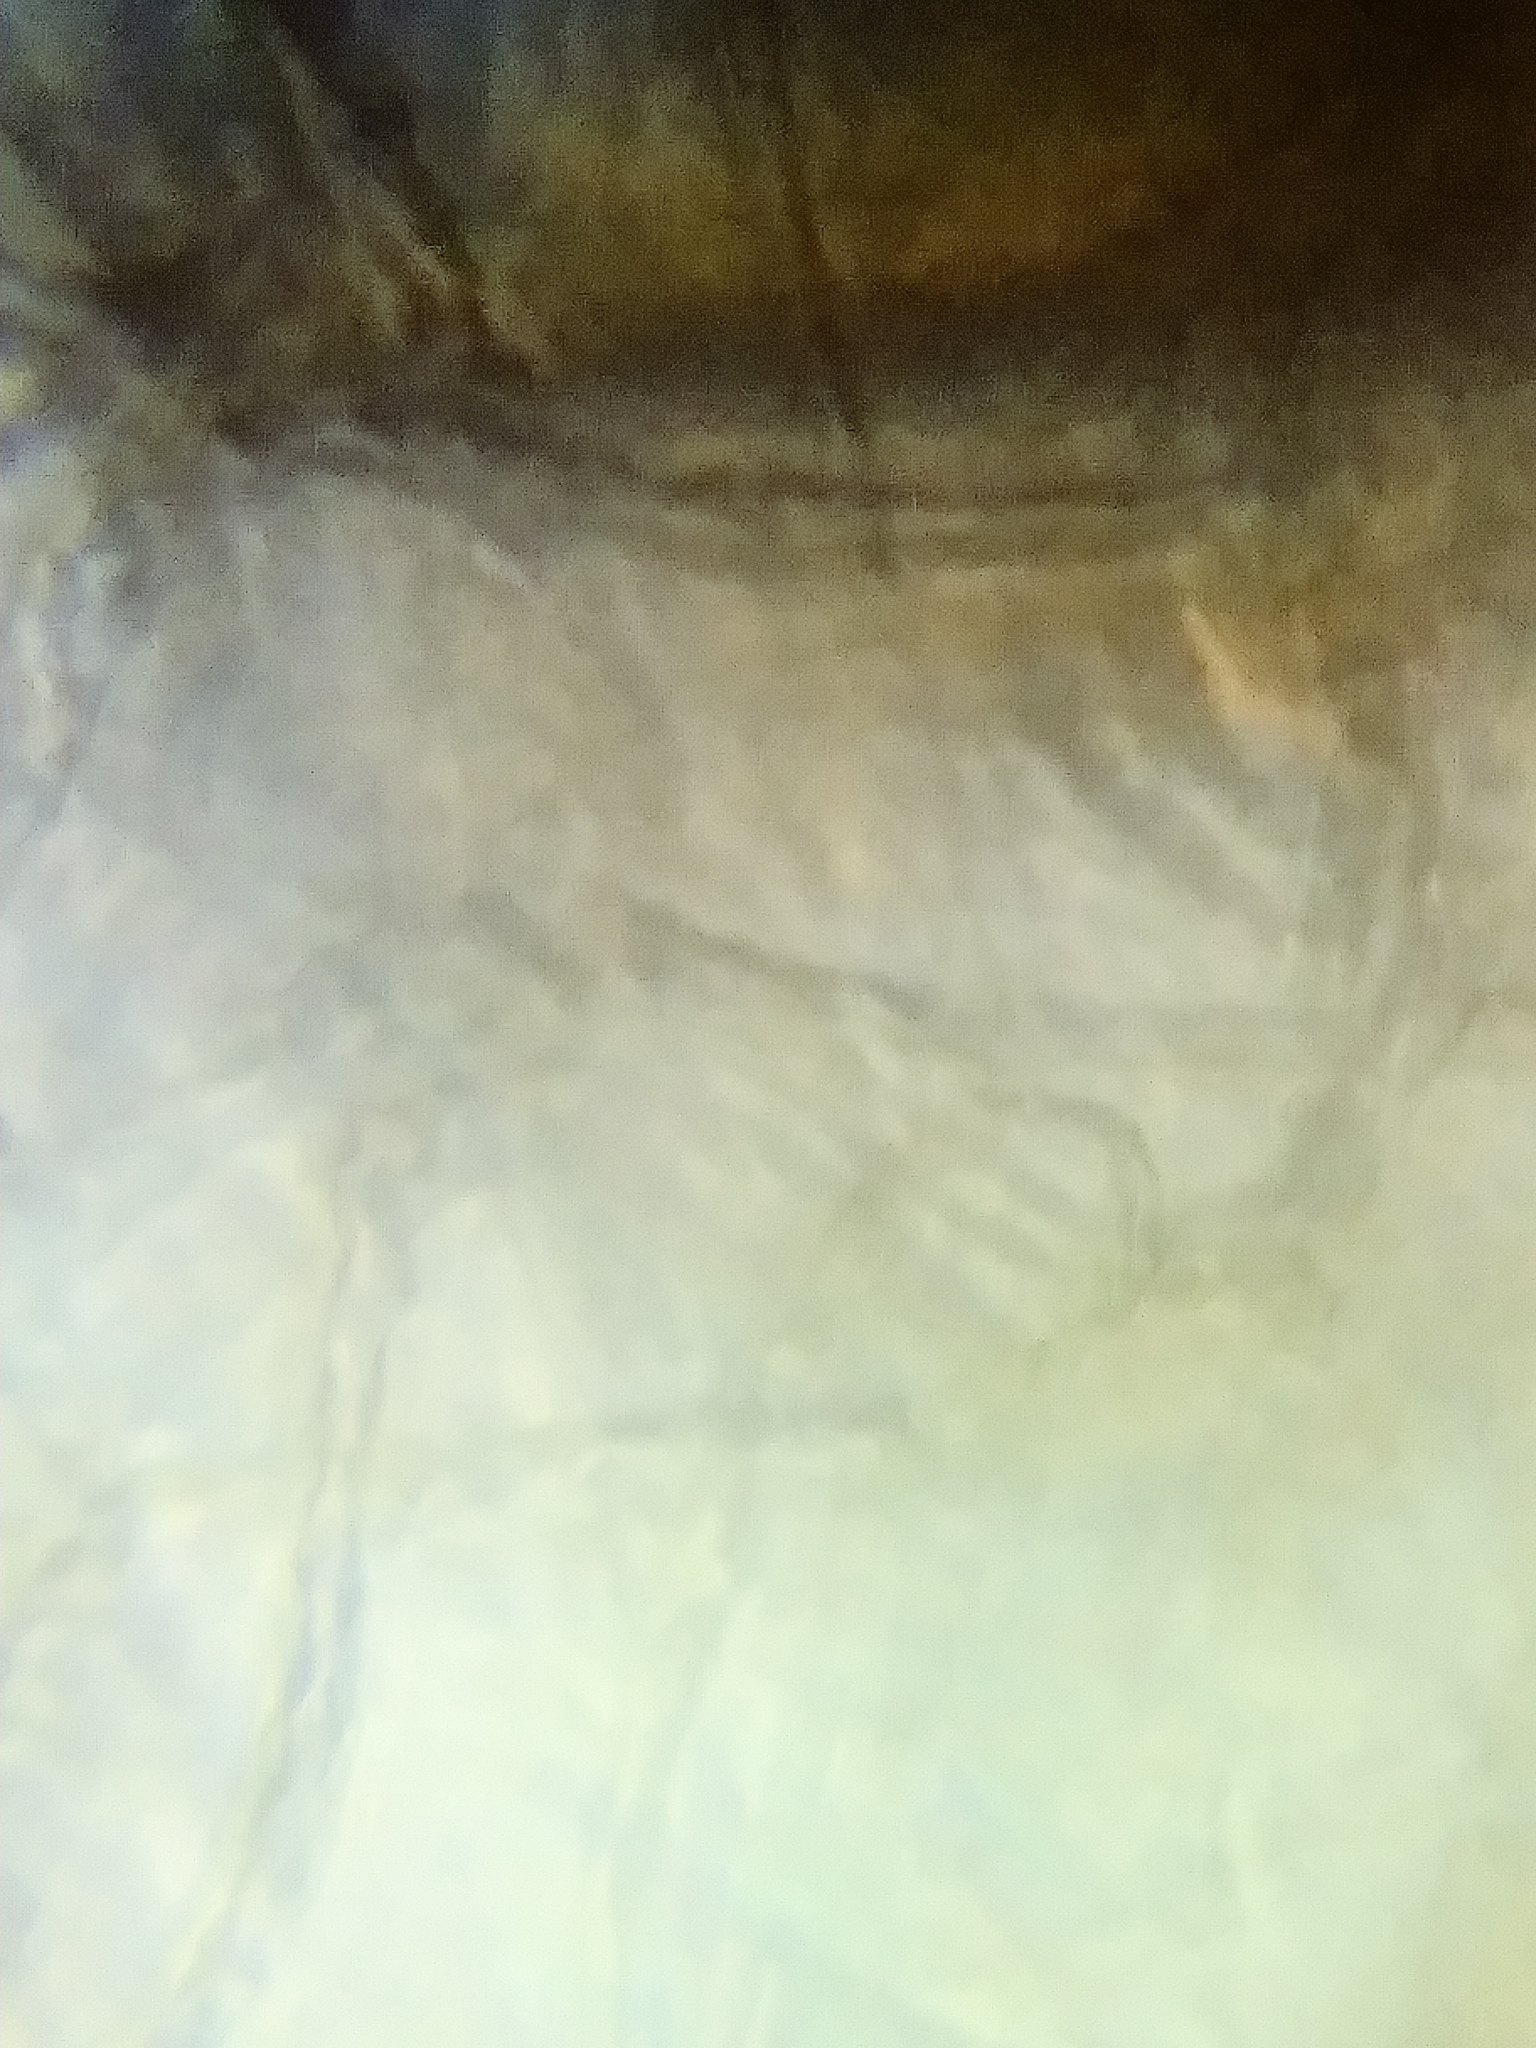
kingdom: Protozoa
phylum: Mycetozoa
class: Myxomycetes
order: Cribrariales
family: Tubiferaceae
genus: Lycogala
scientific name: Lycogala exiguum
